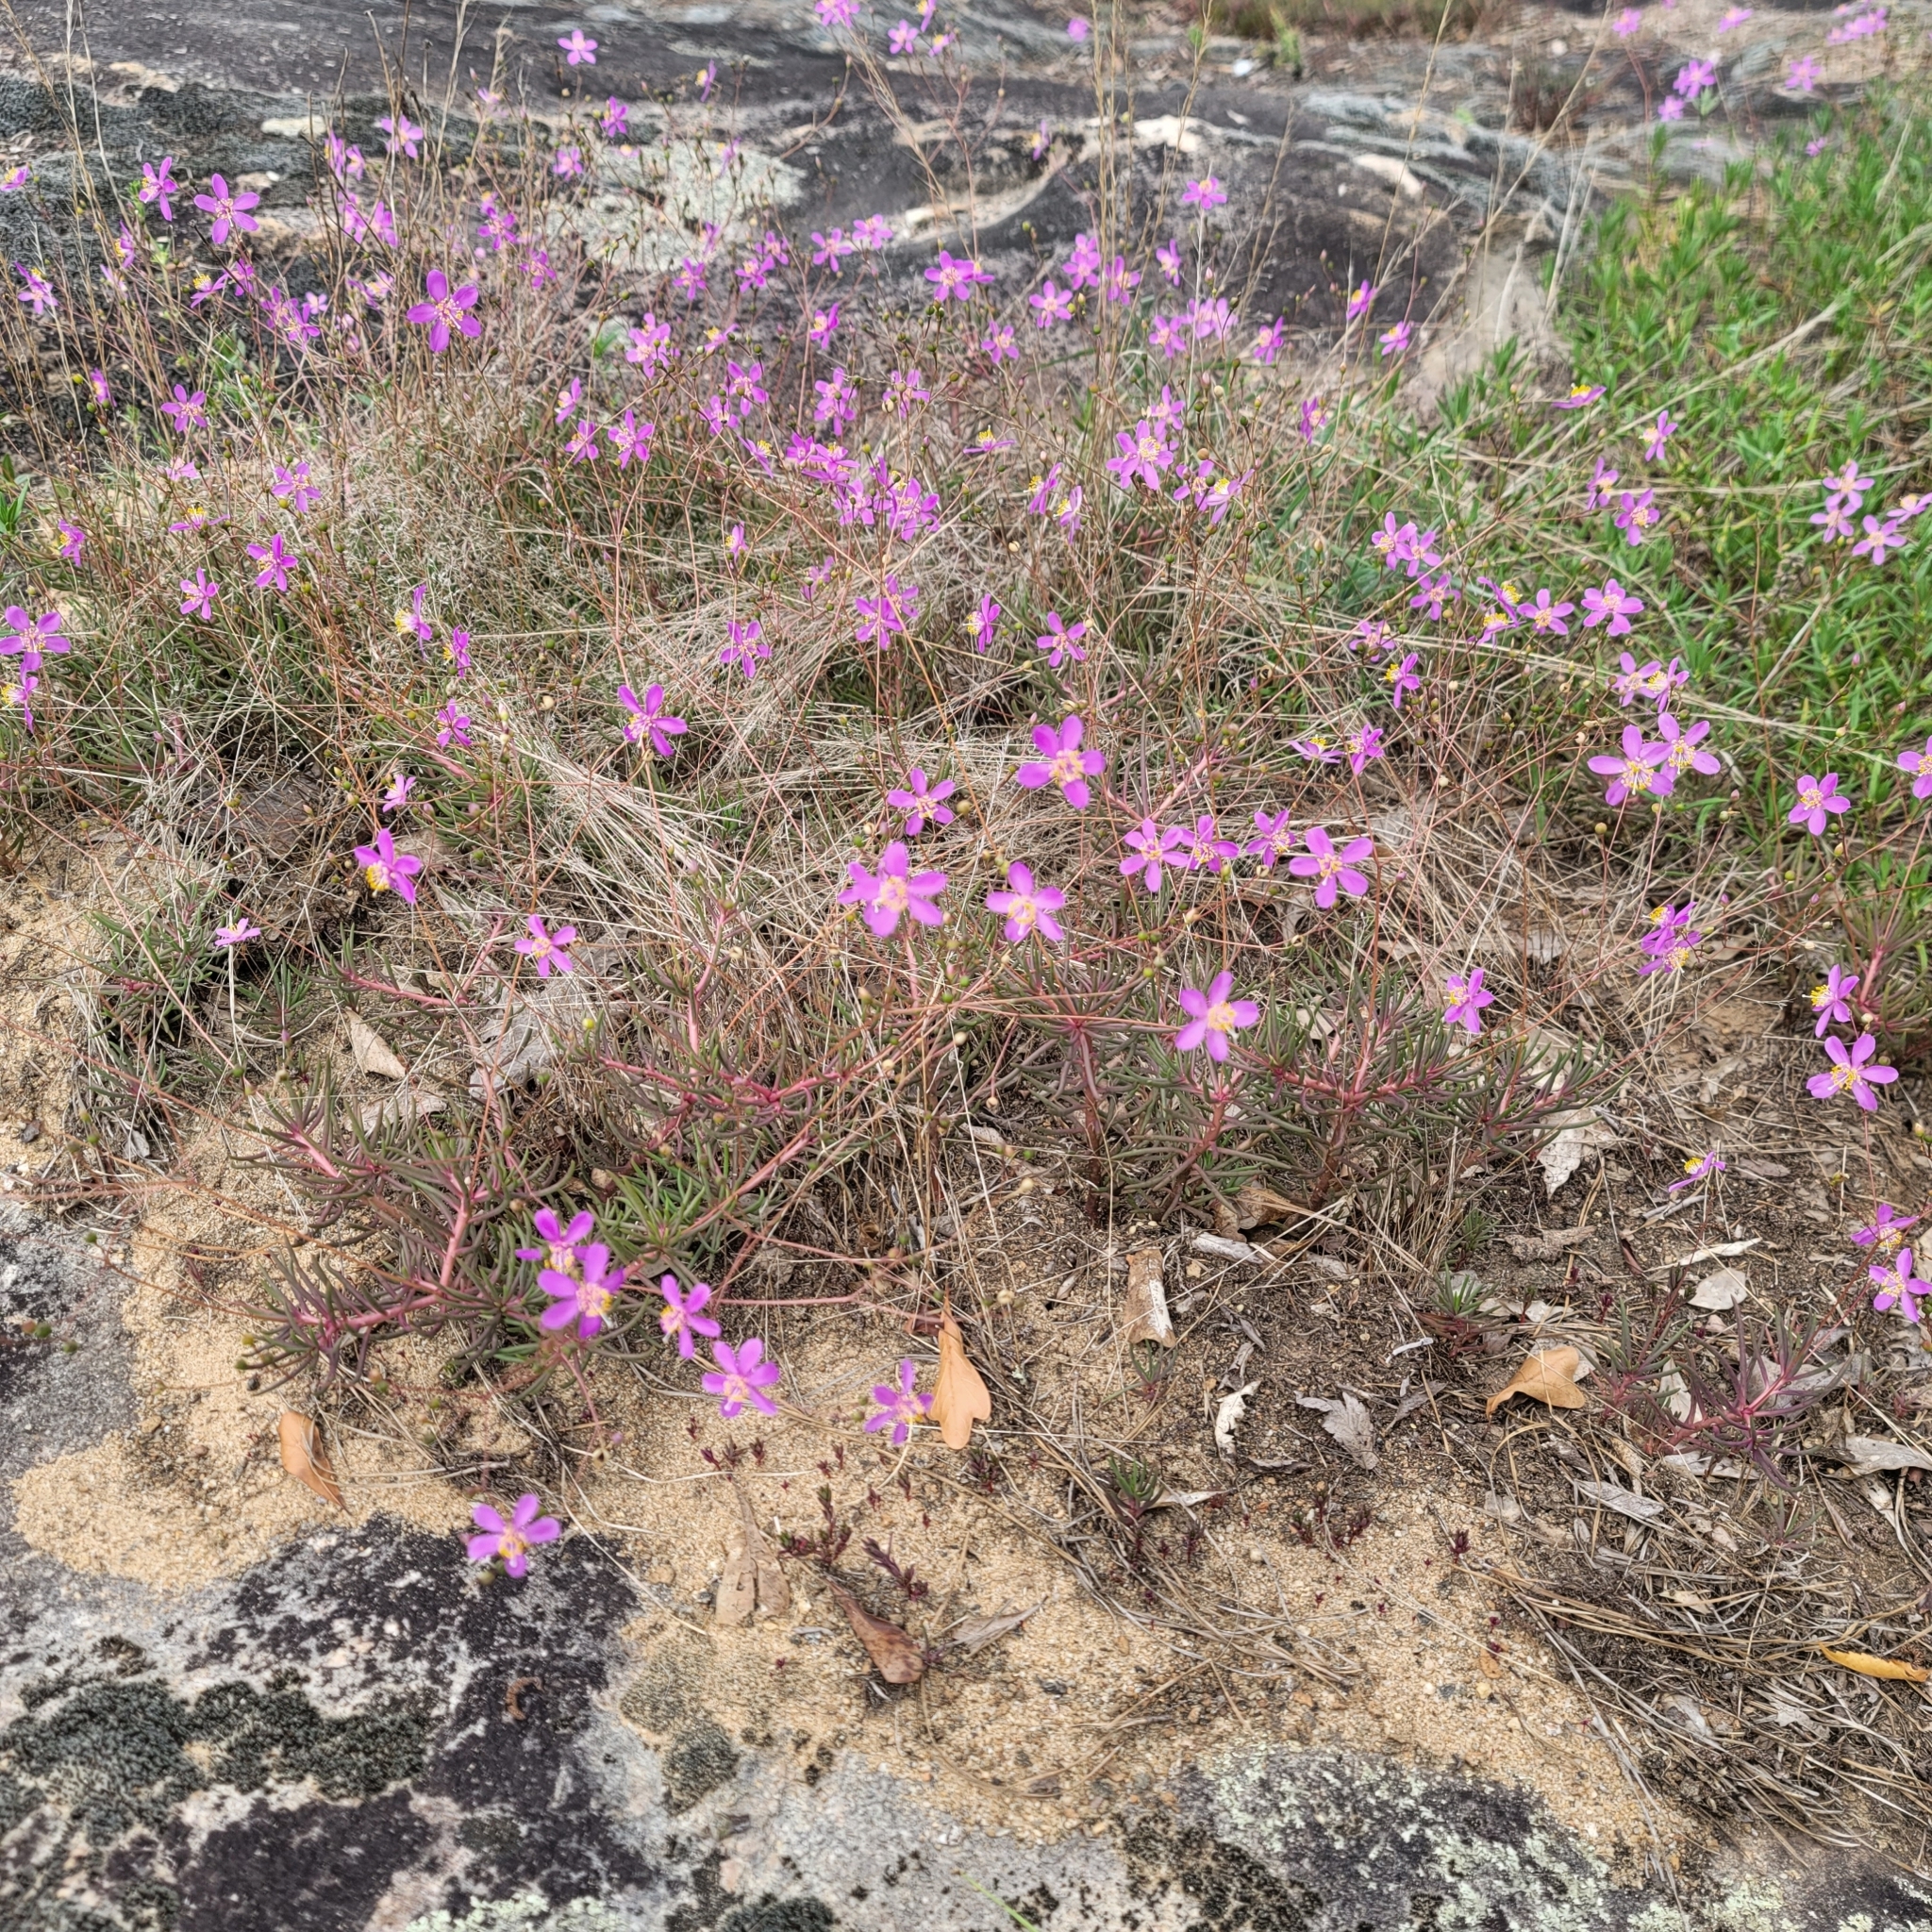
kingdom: Plantae
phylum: Tracheophyta
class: Magnoliopsida
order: Caryophyllales
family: Montiaceae
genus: Phemeranthus
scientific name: Phemeranthus mengesii
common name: Menges' fameflower
